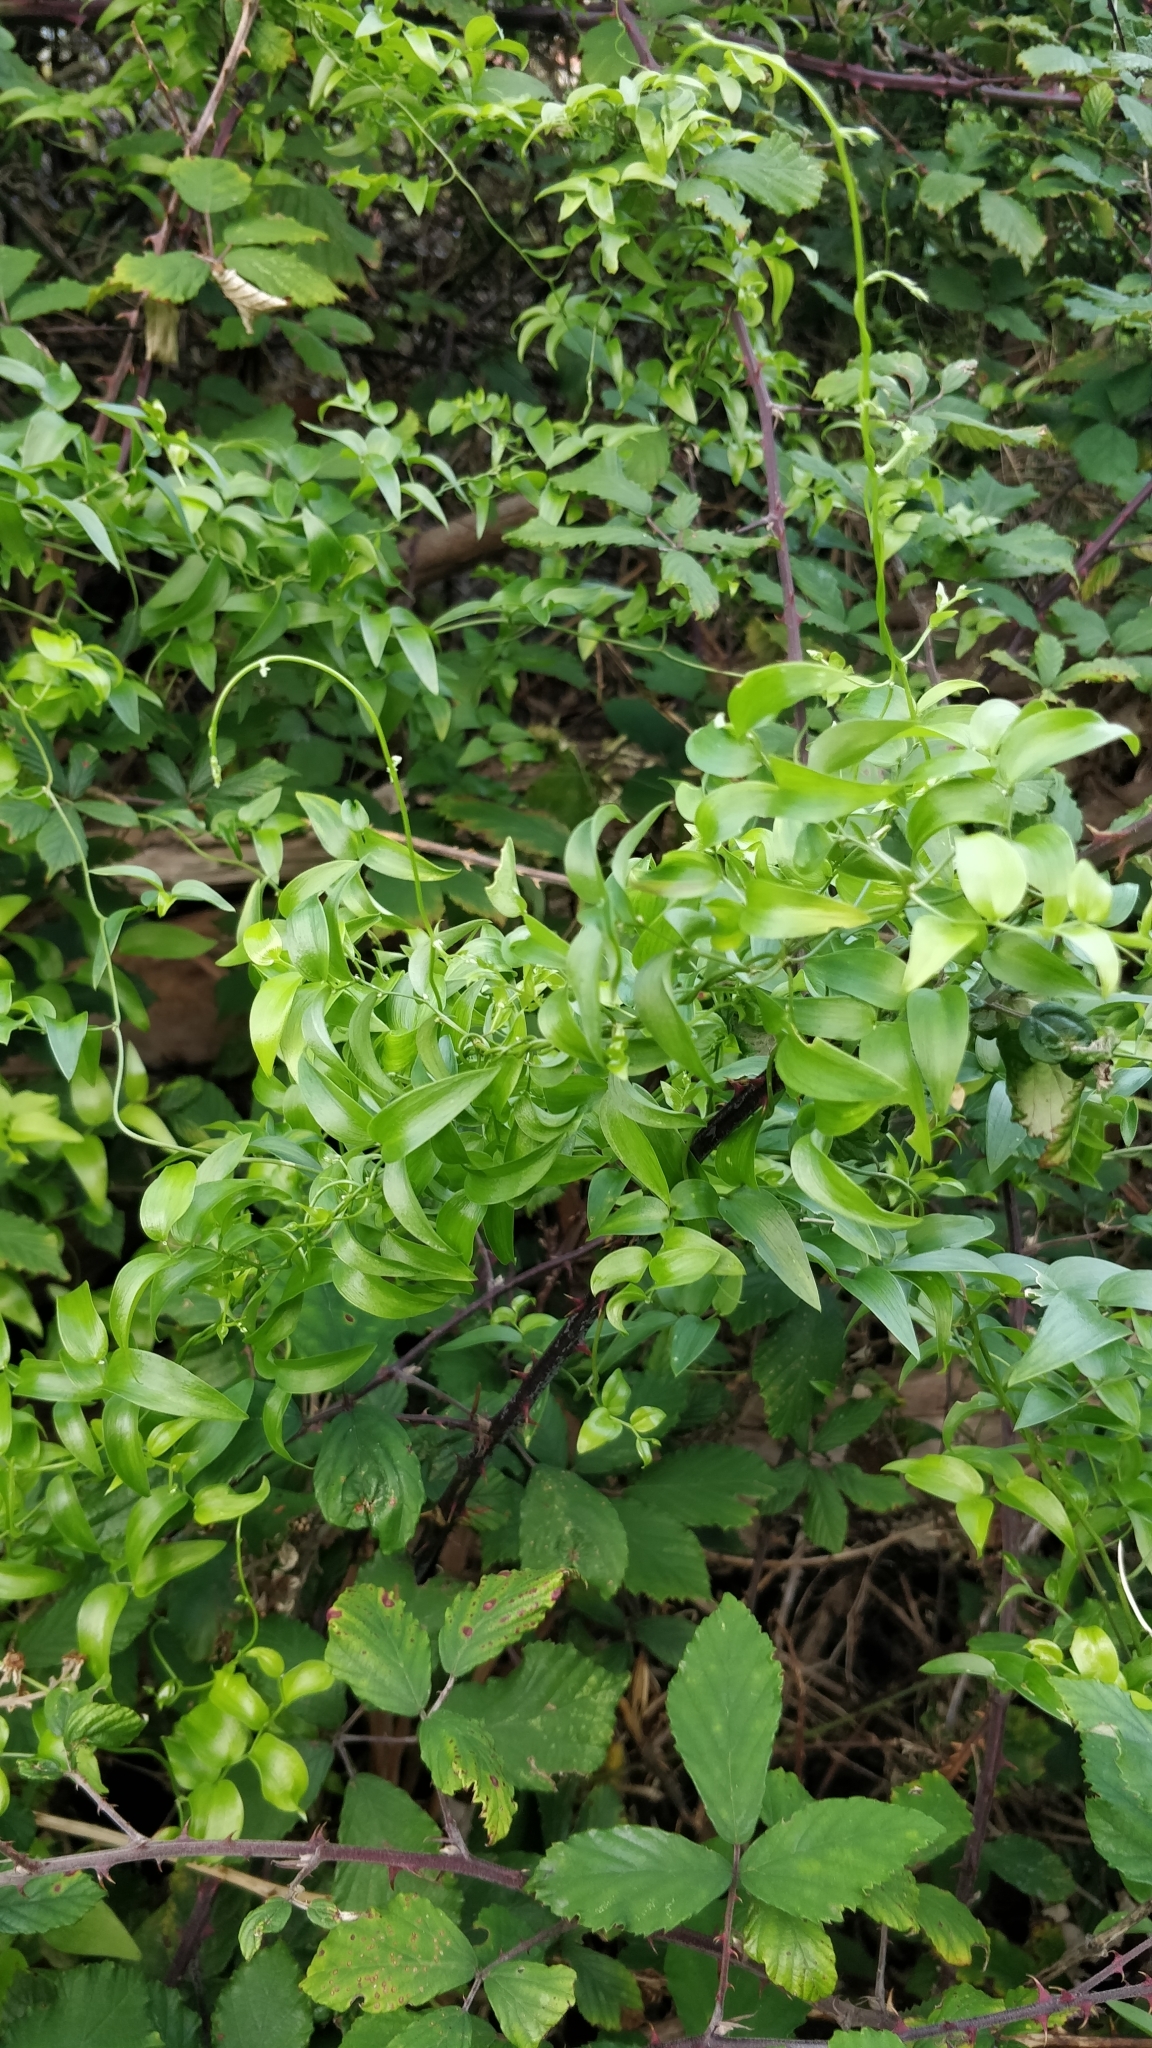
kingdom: Plantae
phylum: Tracheophyta
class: Liliopsida
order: Asparagales
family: Asparagaceae
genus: Asparagus
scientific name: Asparagus asparagoides
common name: African asparagus fern
